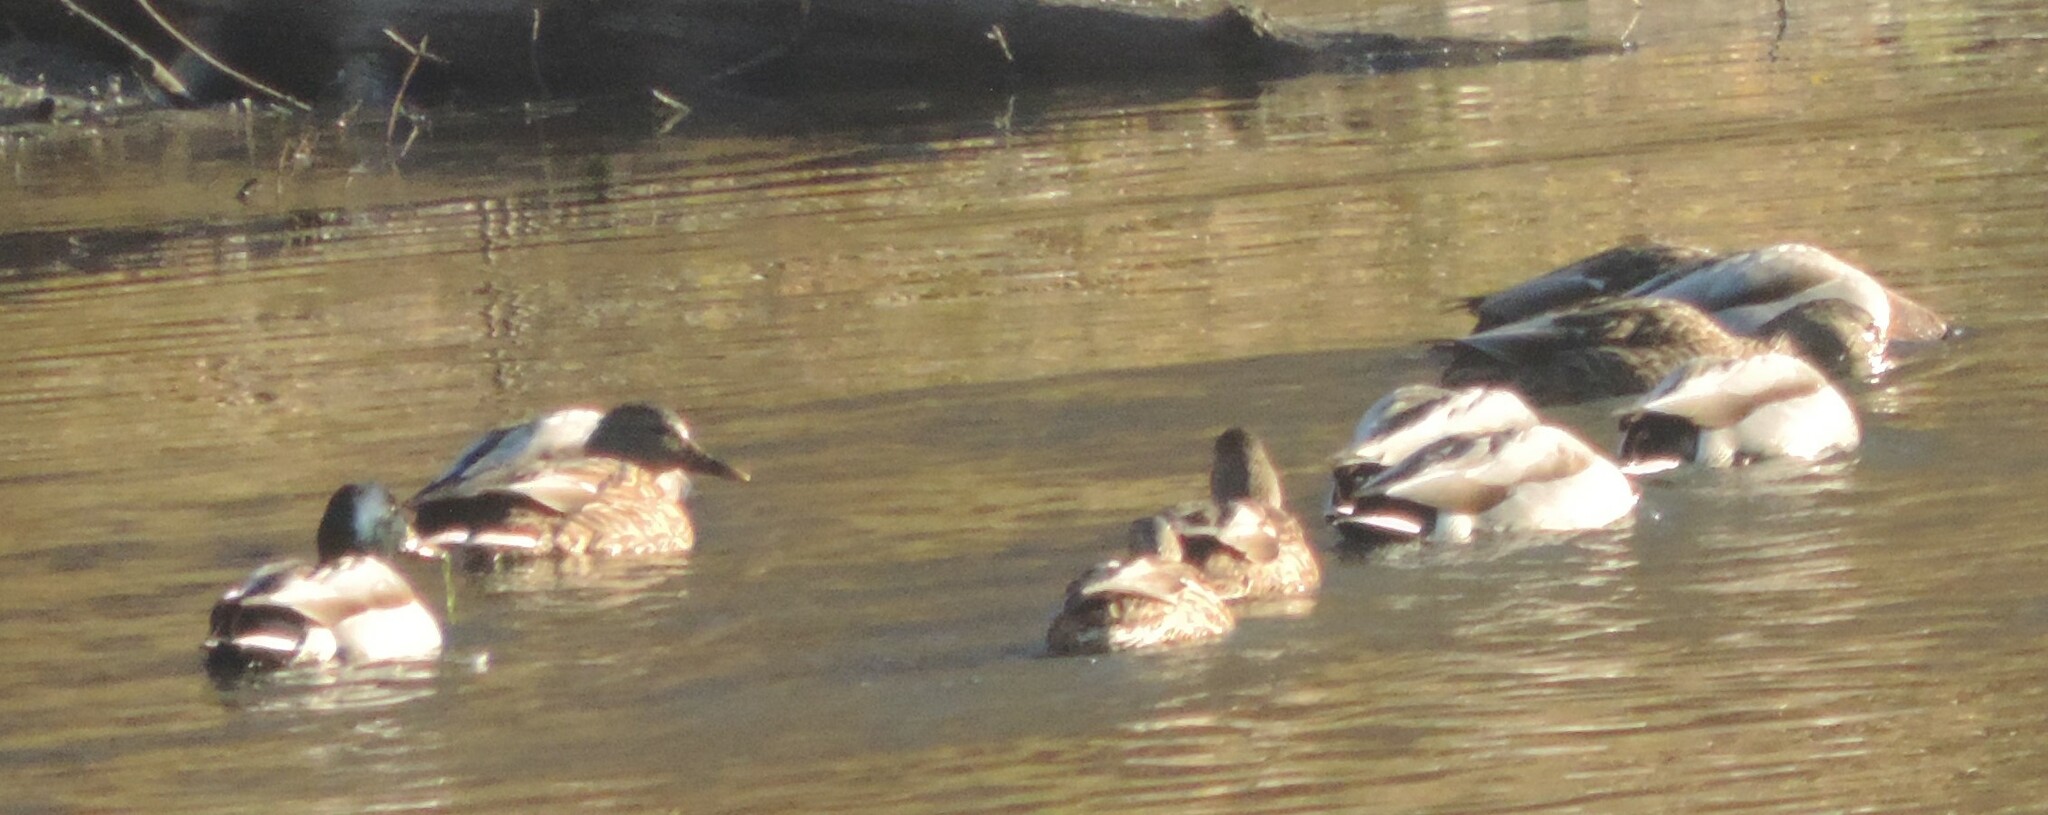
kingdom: Animalia
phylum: Chordata
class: Aves
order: Anseriformes
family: Anatidae
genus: Anas
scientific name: Anas platyrhynchos
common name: Mallard
